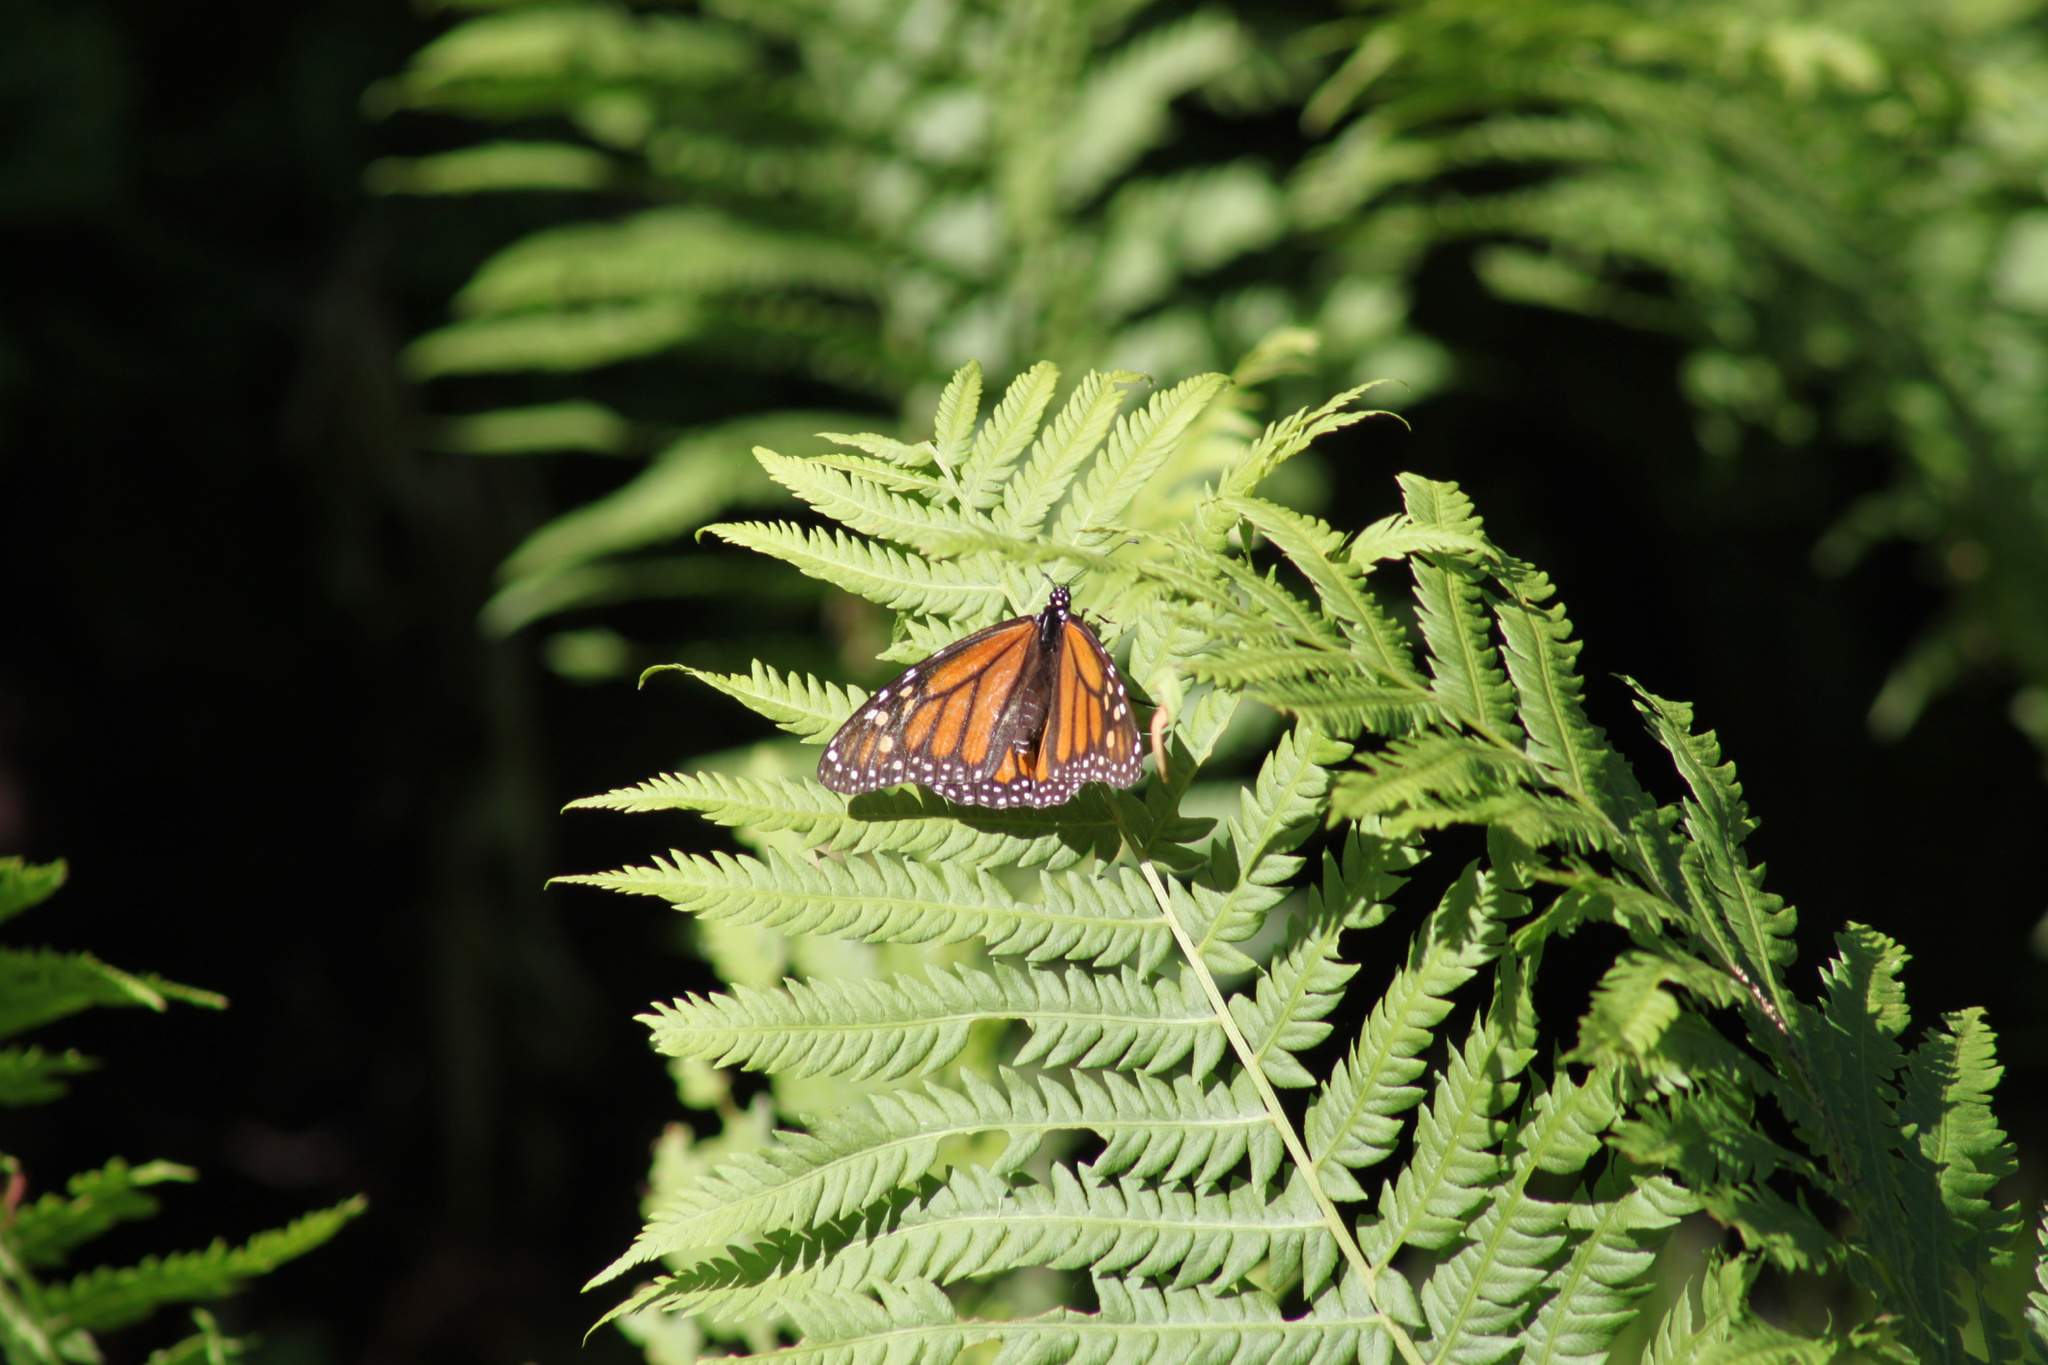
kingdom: Animalia
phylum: Arthropoda
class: Insecta
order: Lepidoptera
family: Nymphalidae
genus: Danaus
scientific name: Danaus plexippus
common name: Monarch
